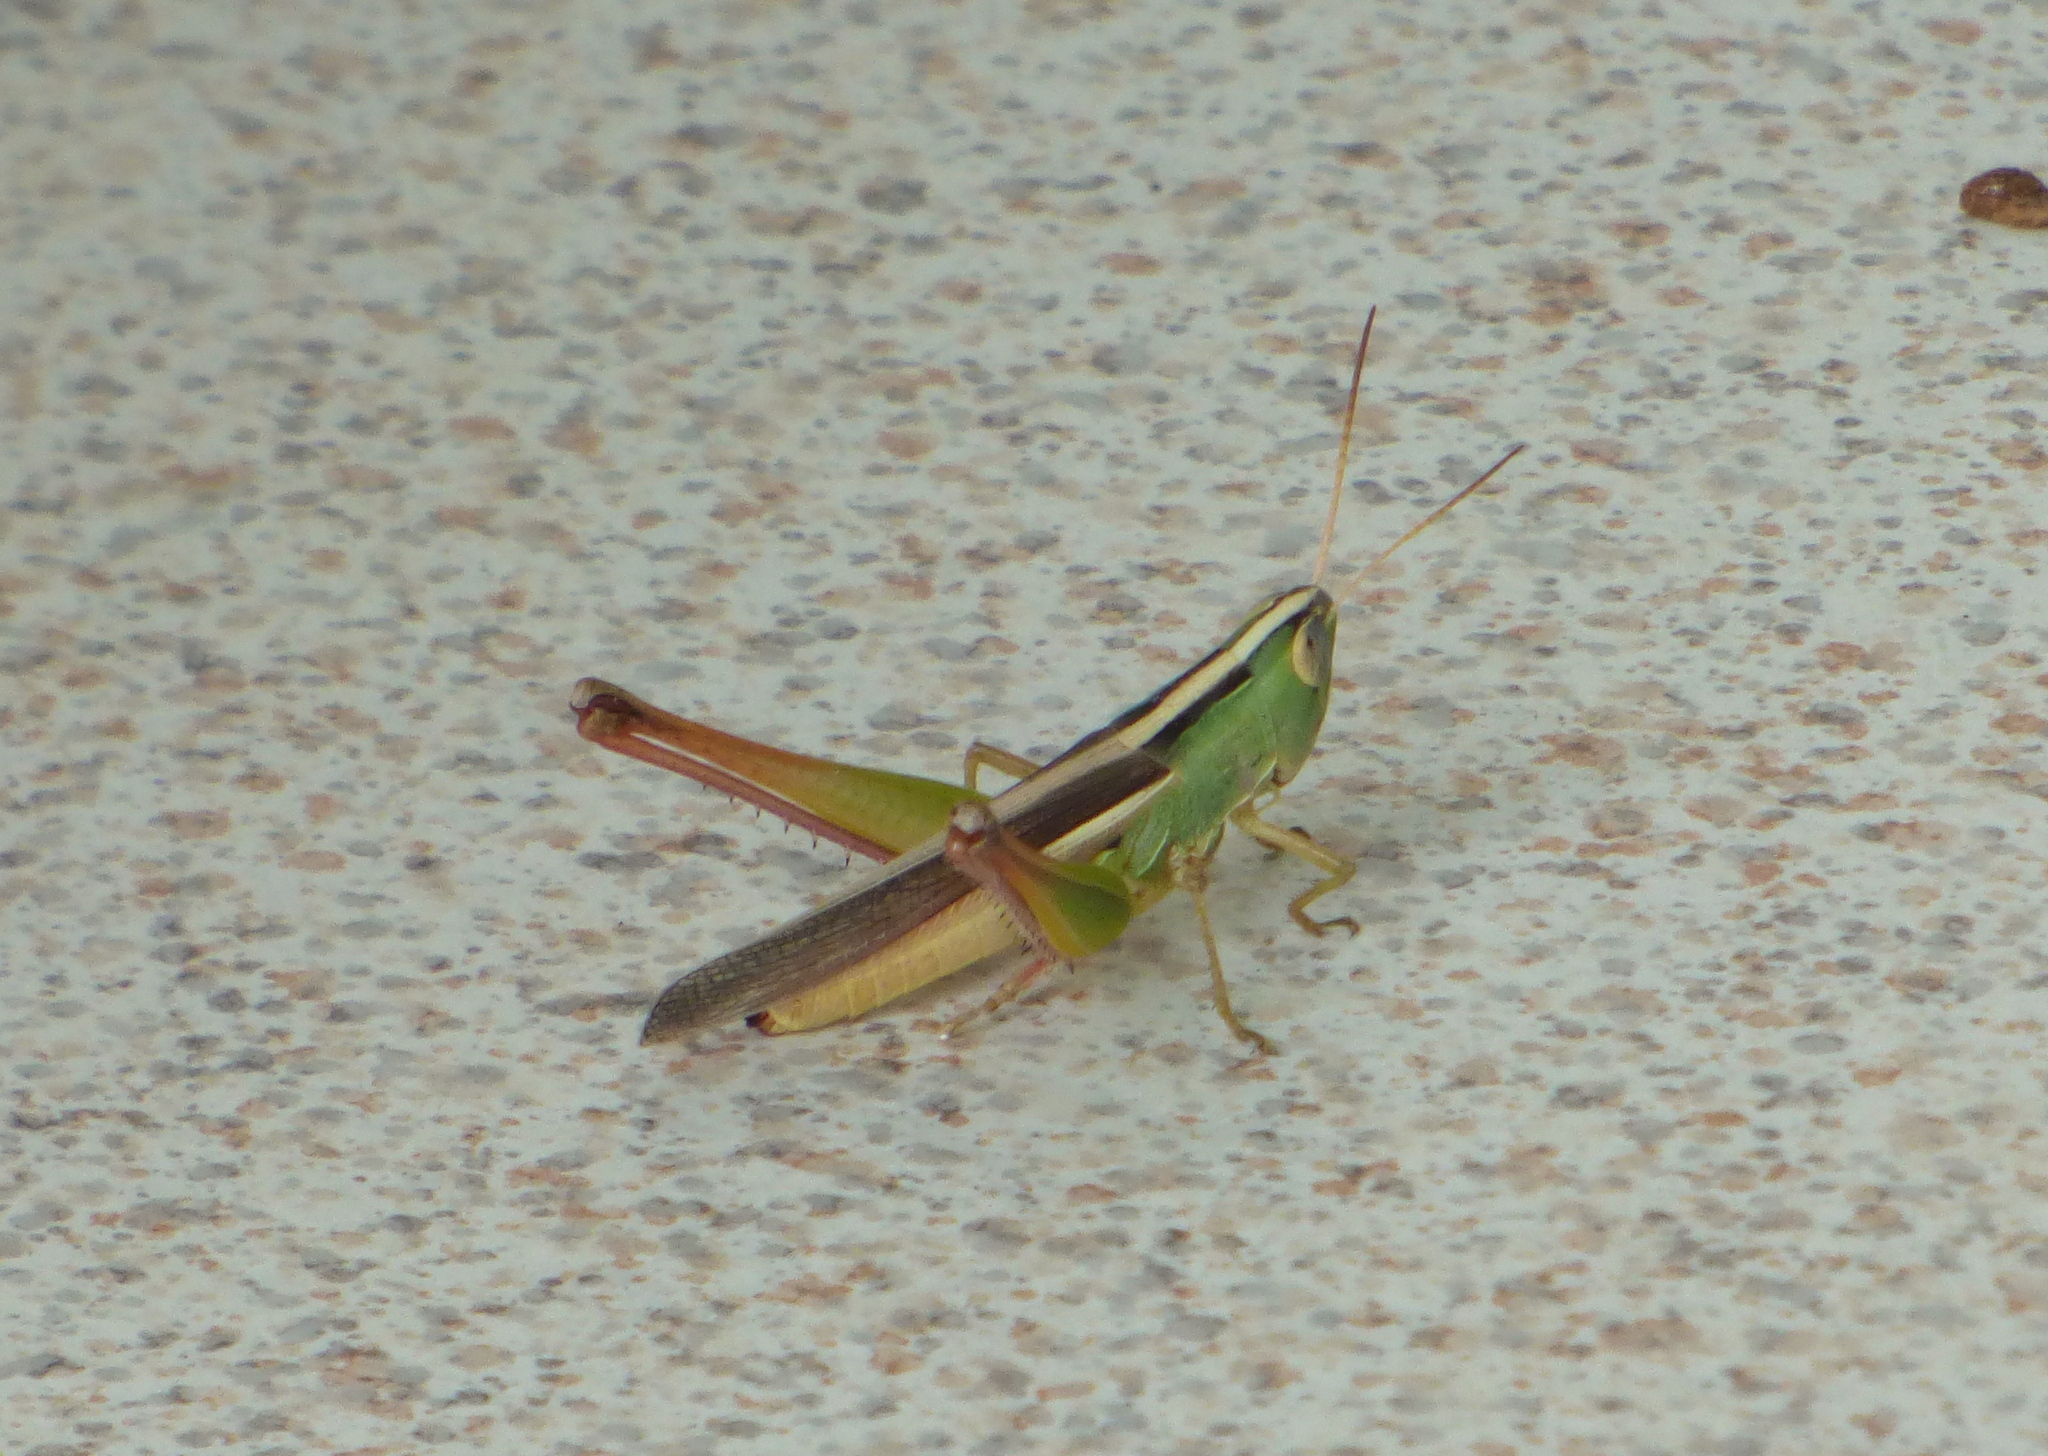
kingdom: Animalia
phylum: Arthropoda
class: Insecta
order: Orthoptera
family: Acrididae
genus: Staurorhectus
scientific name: Staurorhectus longicornis
